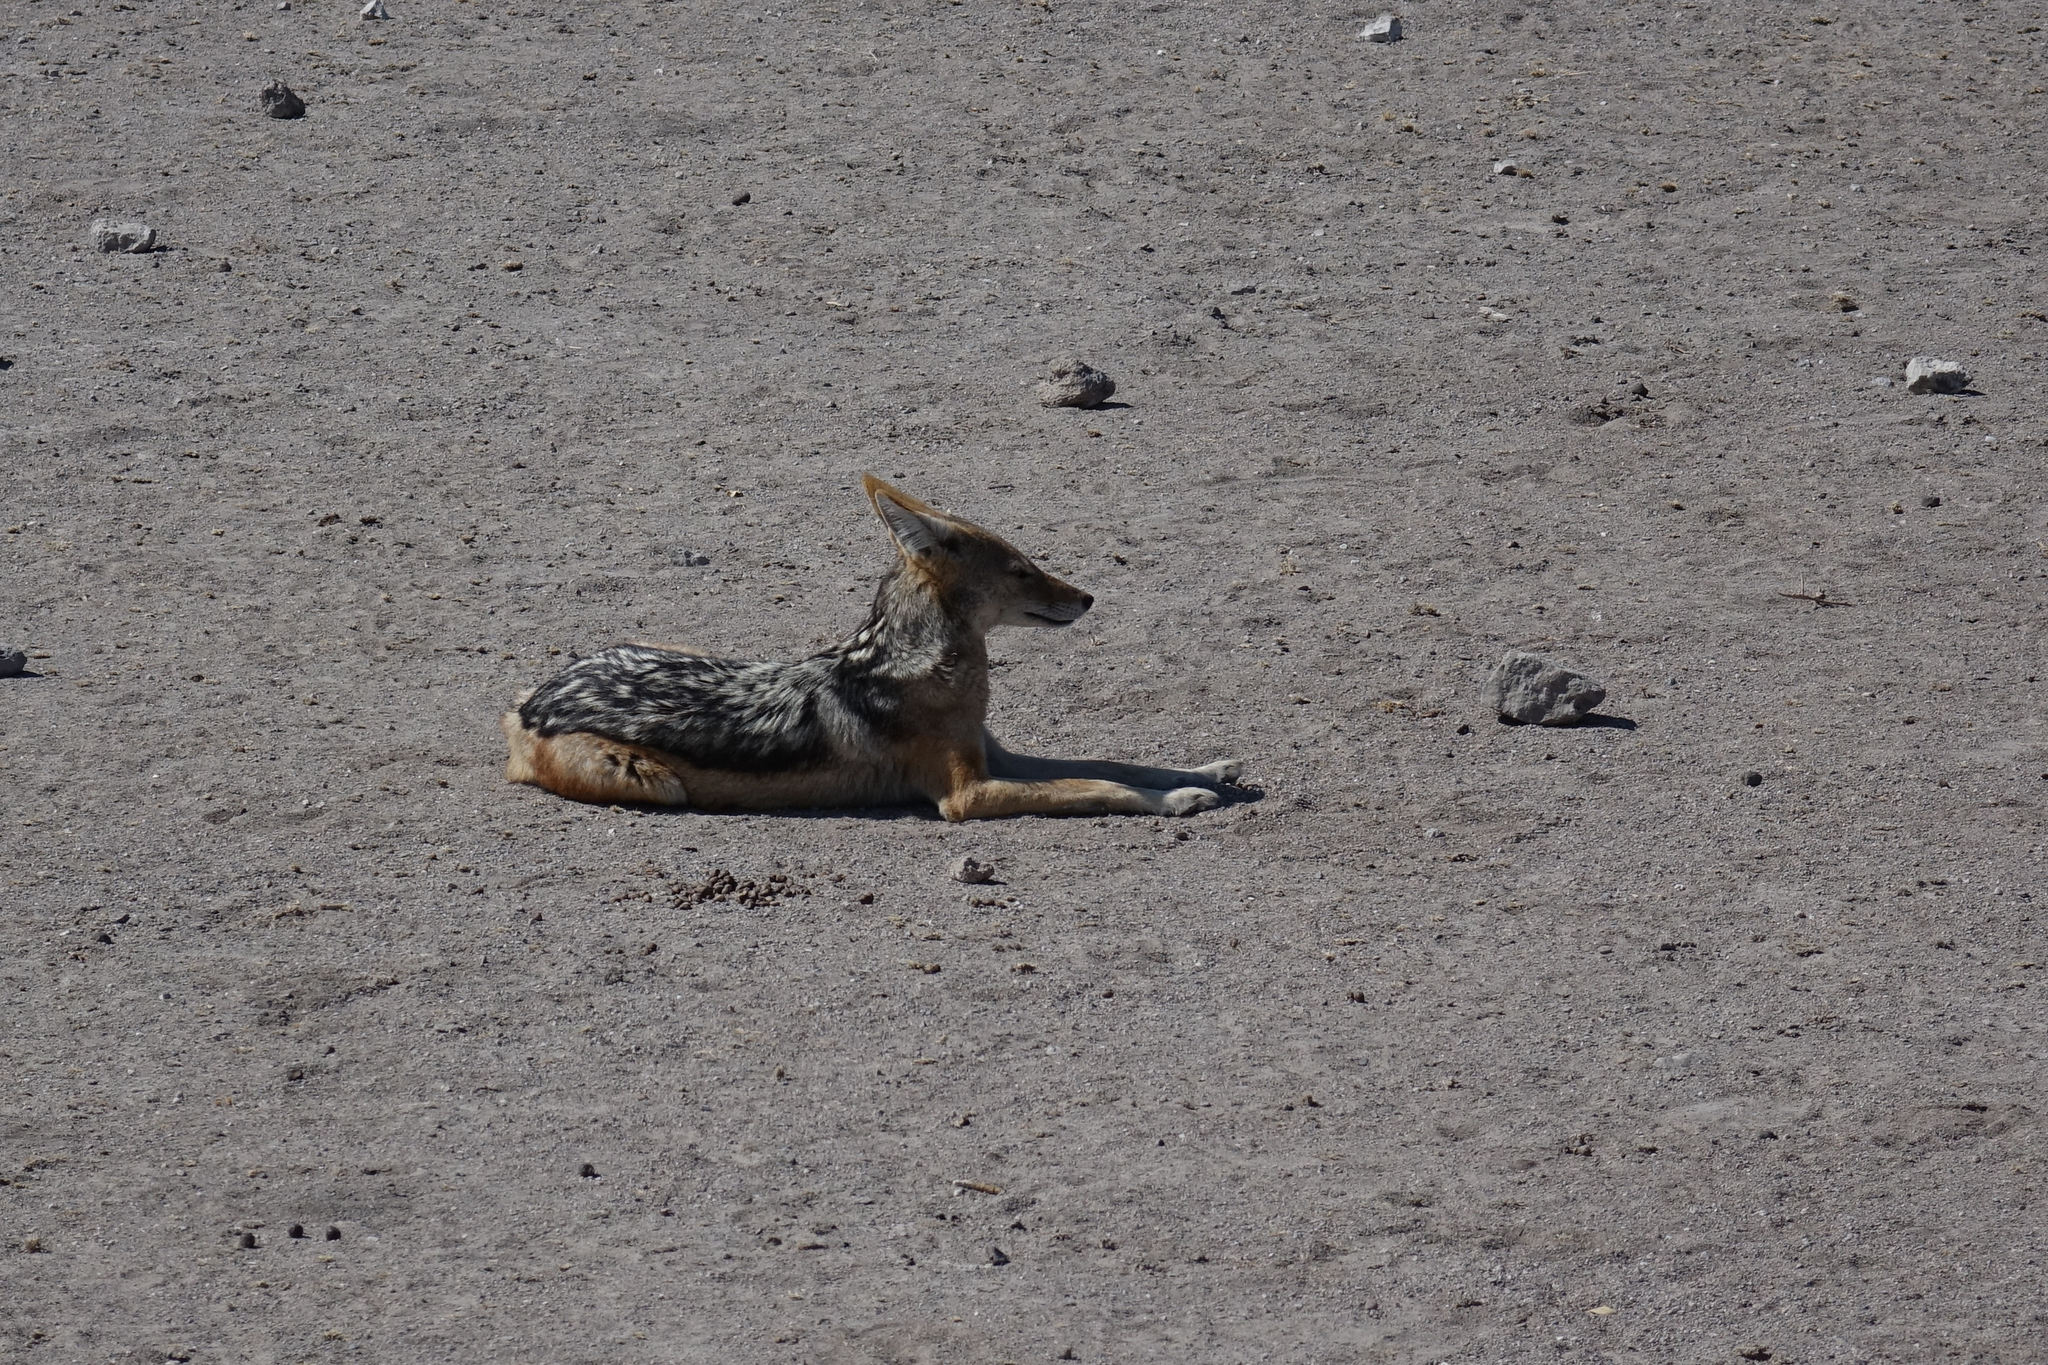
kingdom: Animalia
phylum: Chordata
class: Mammalia
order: Carnivora
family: Canidae
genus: Lupulella
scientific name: Lupulella
